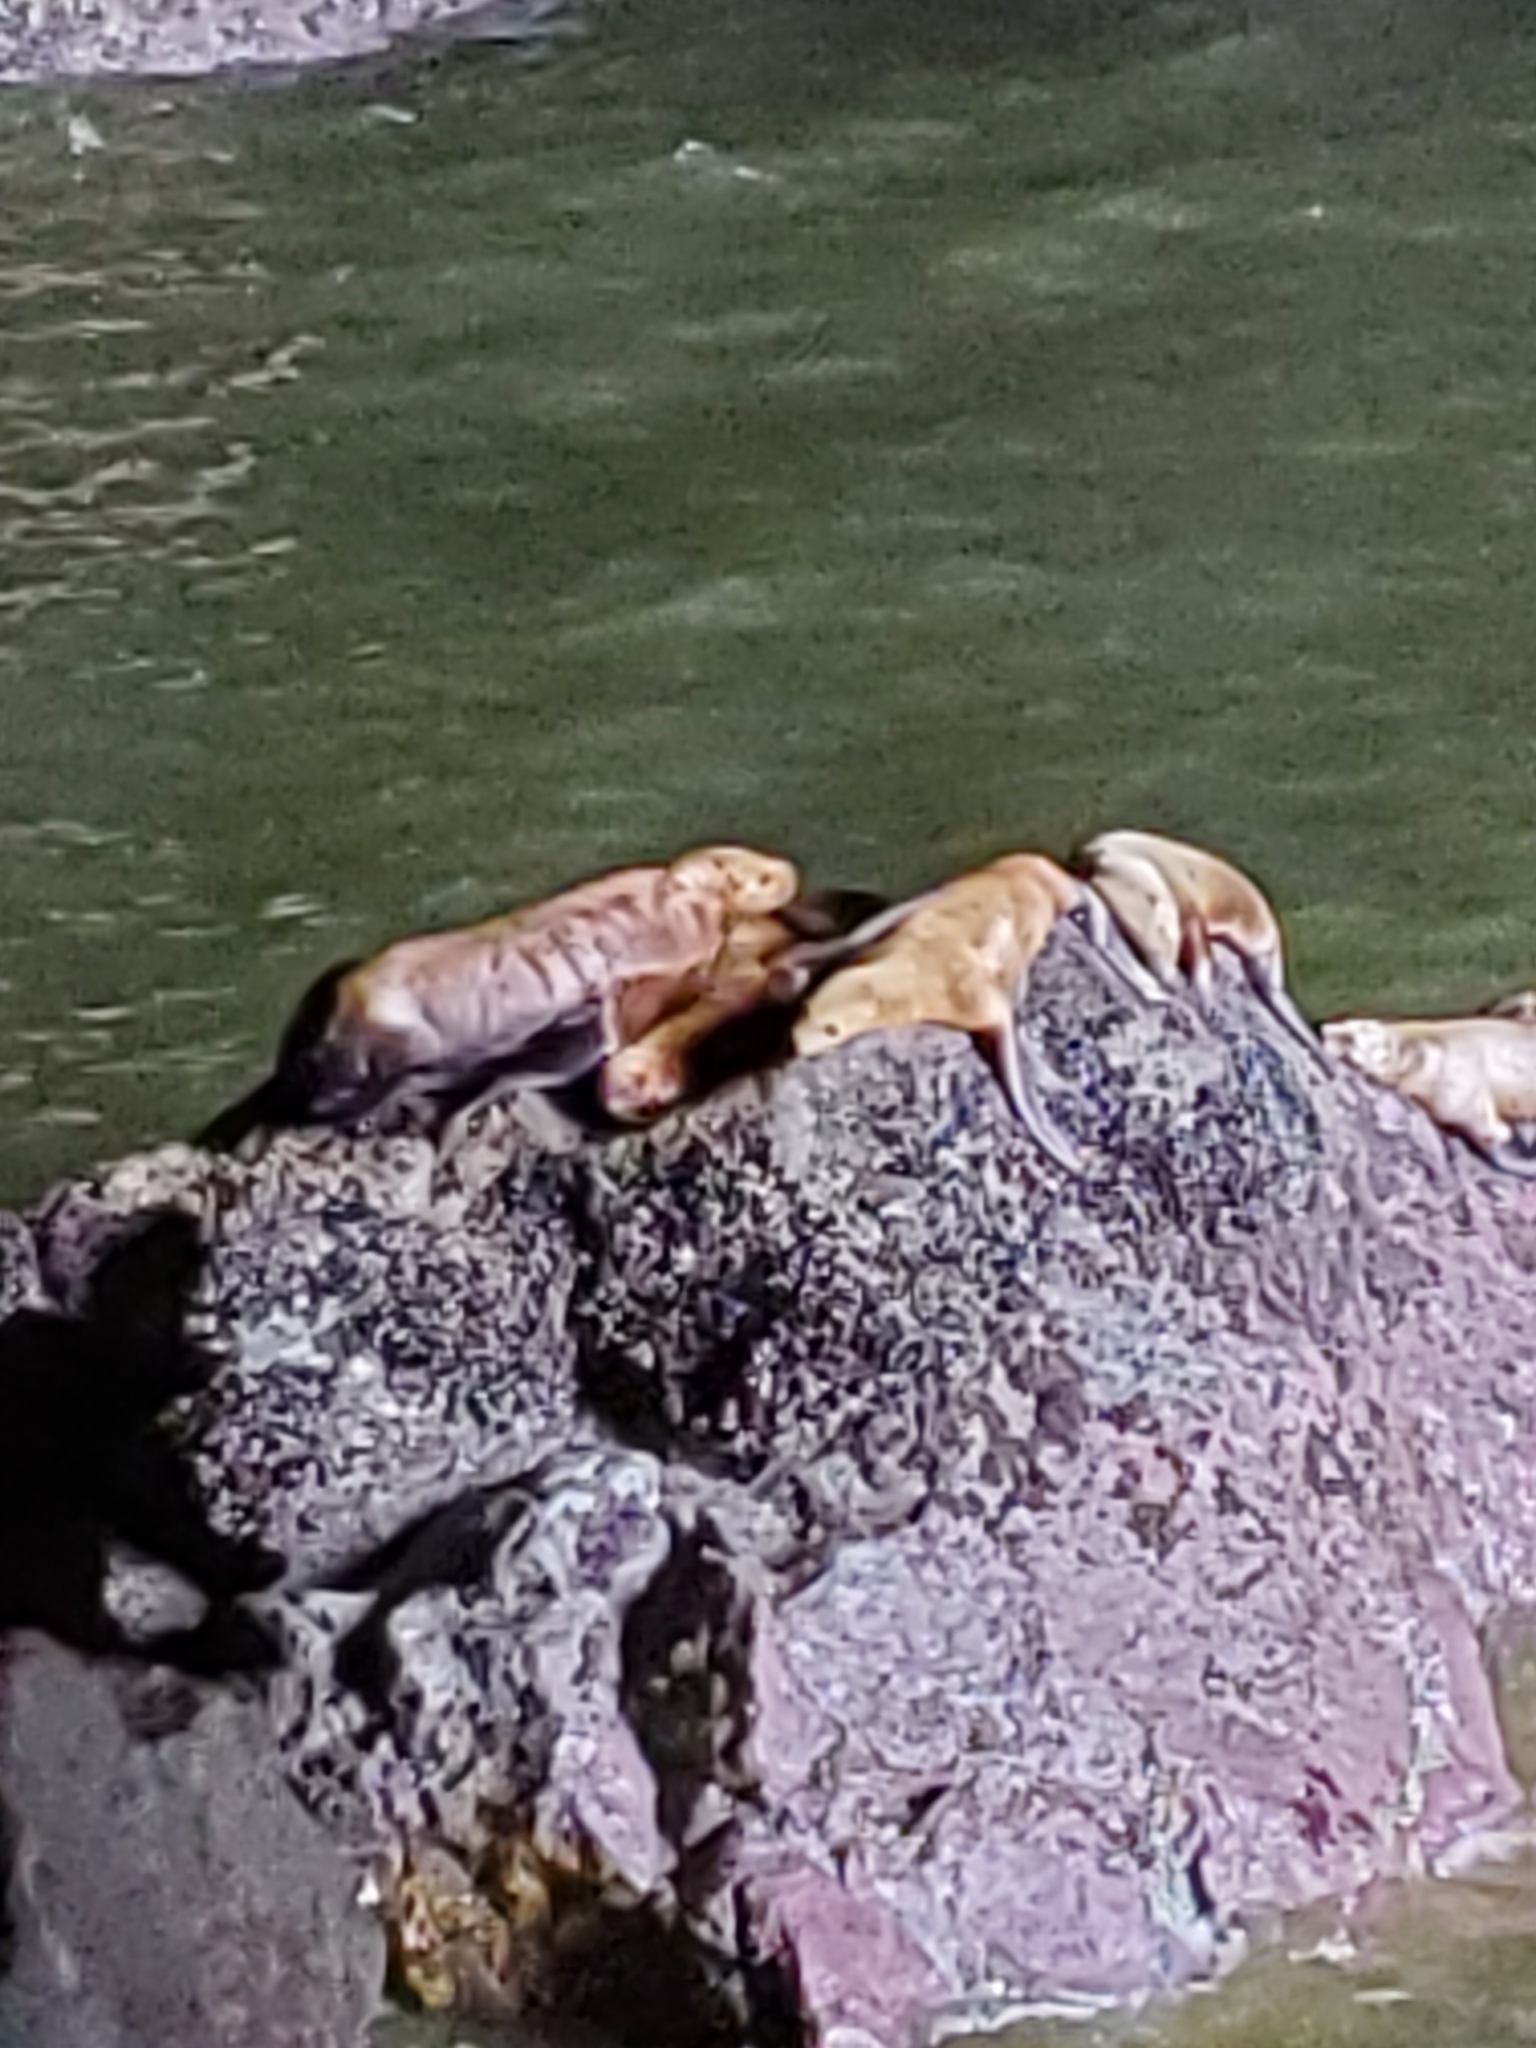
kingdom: Animalia
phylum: Chordata
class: Mammalia
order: Carnivora
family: Otariidae
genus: Eumetopias
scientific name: Eumetopias jubatus
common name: Steller sea lion
